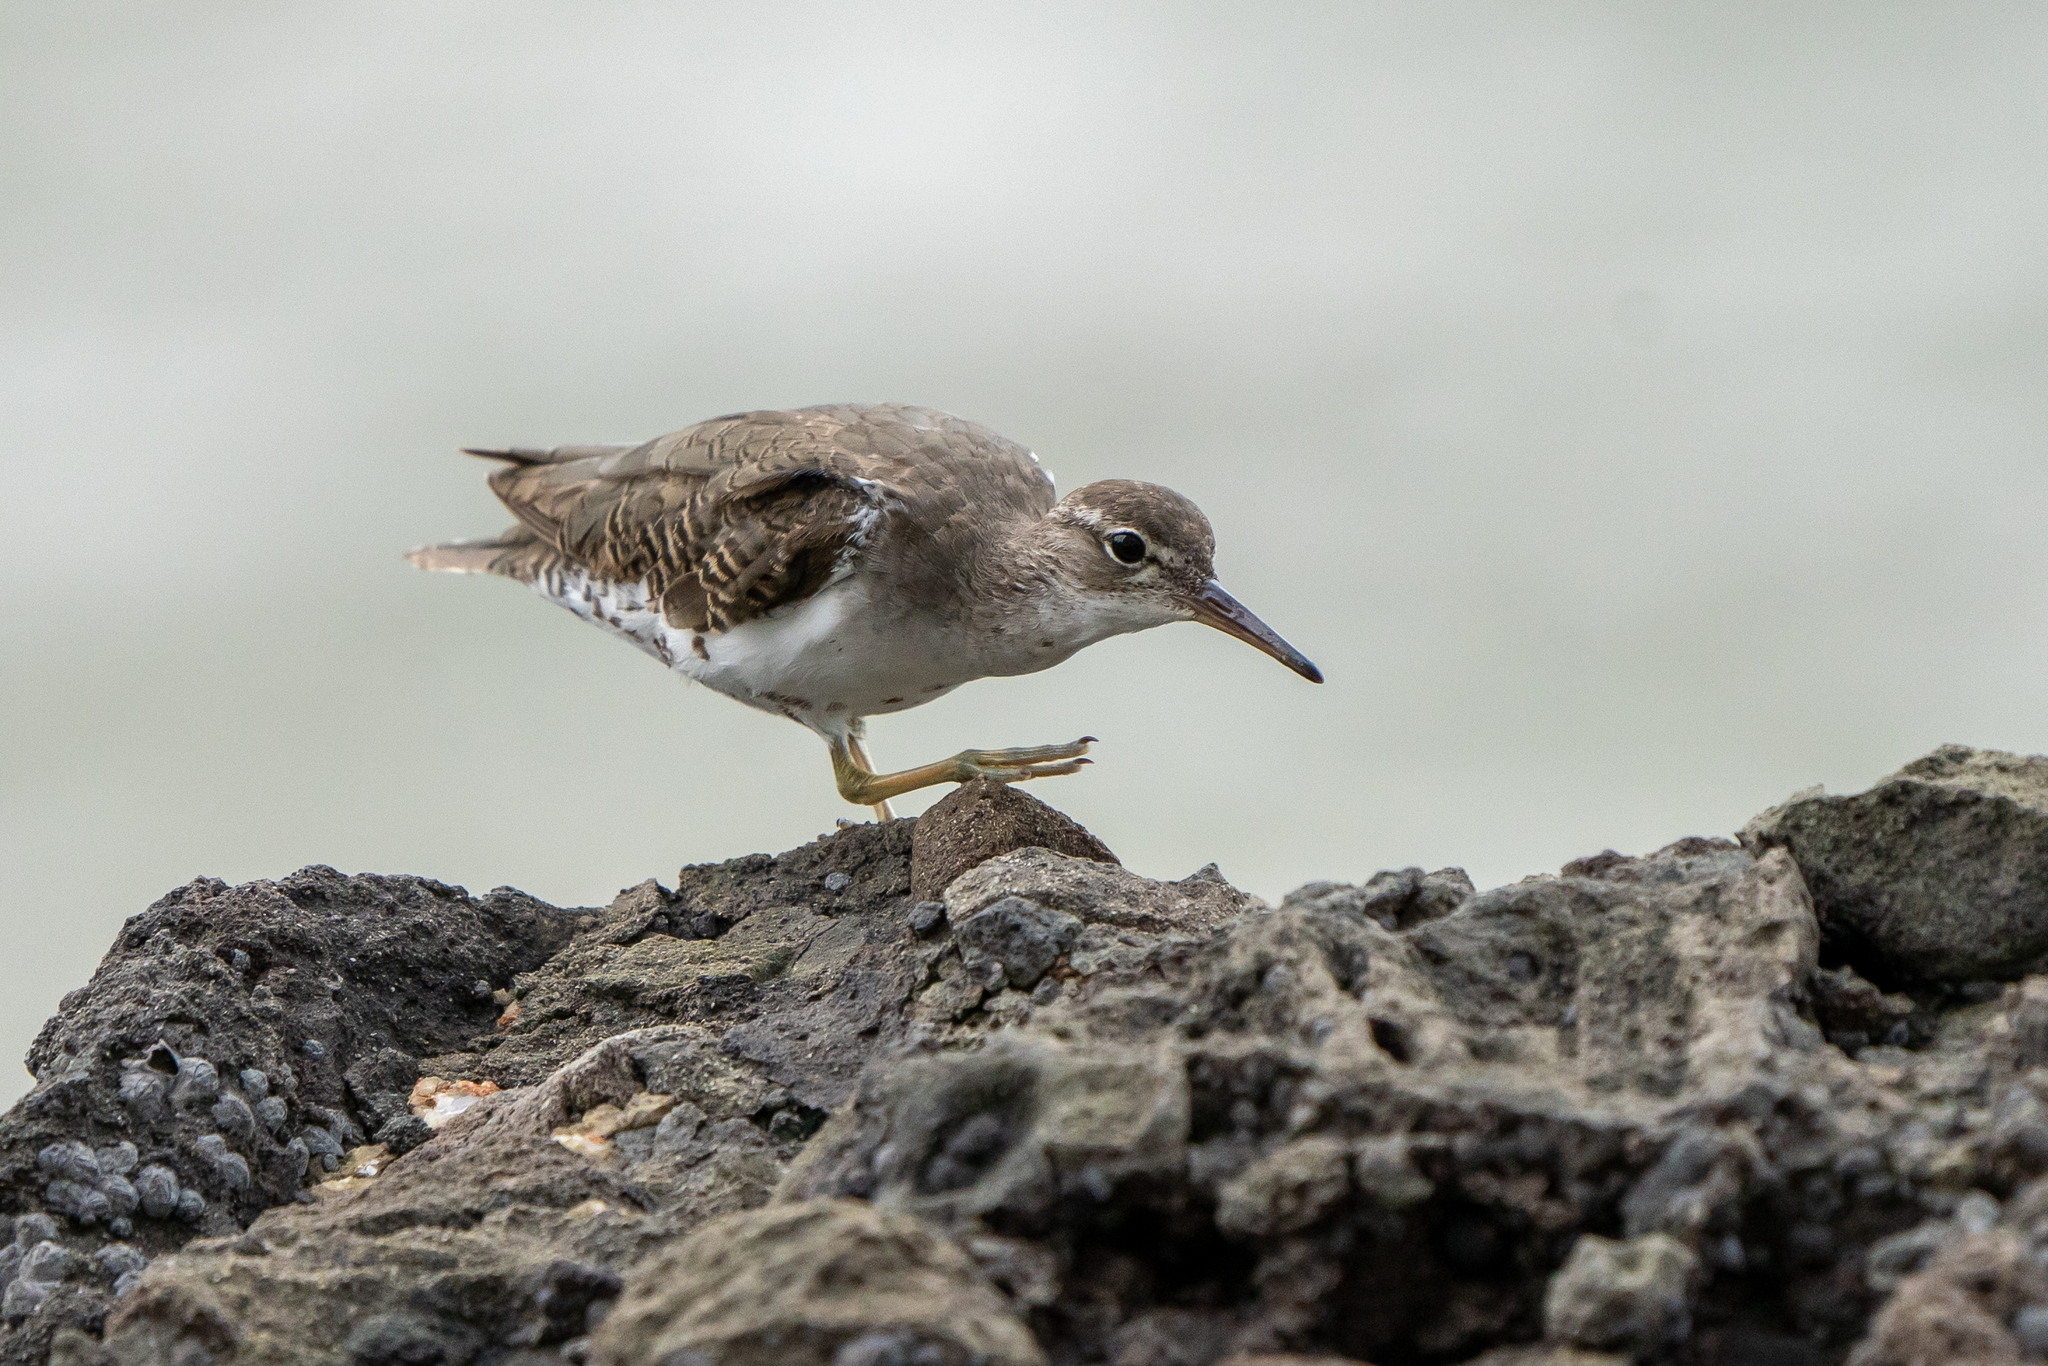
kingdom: Animalia
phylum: Chordata
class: Aves
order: Charadriiformes
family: Scolopacidae
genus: Actitis
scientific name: Actitis macularius
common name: Spotted sandpiper
